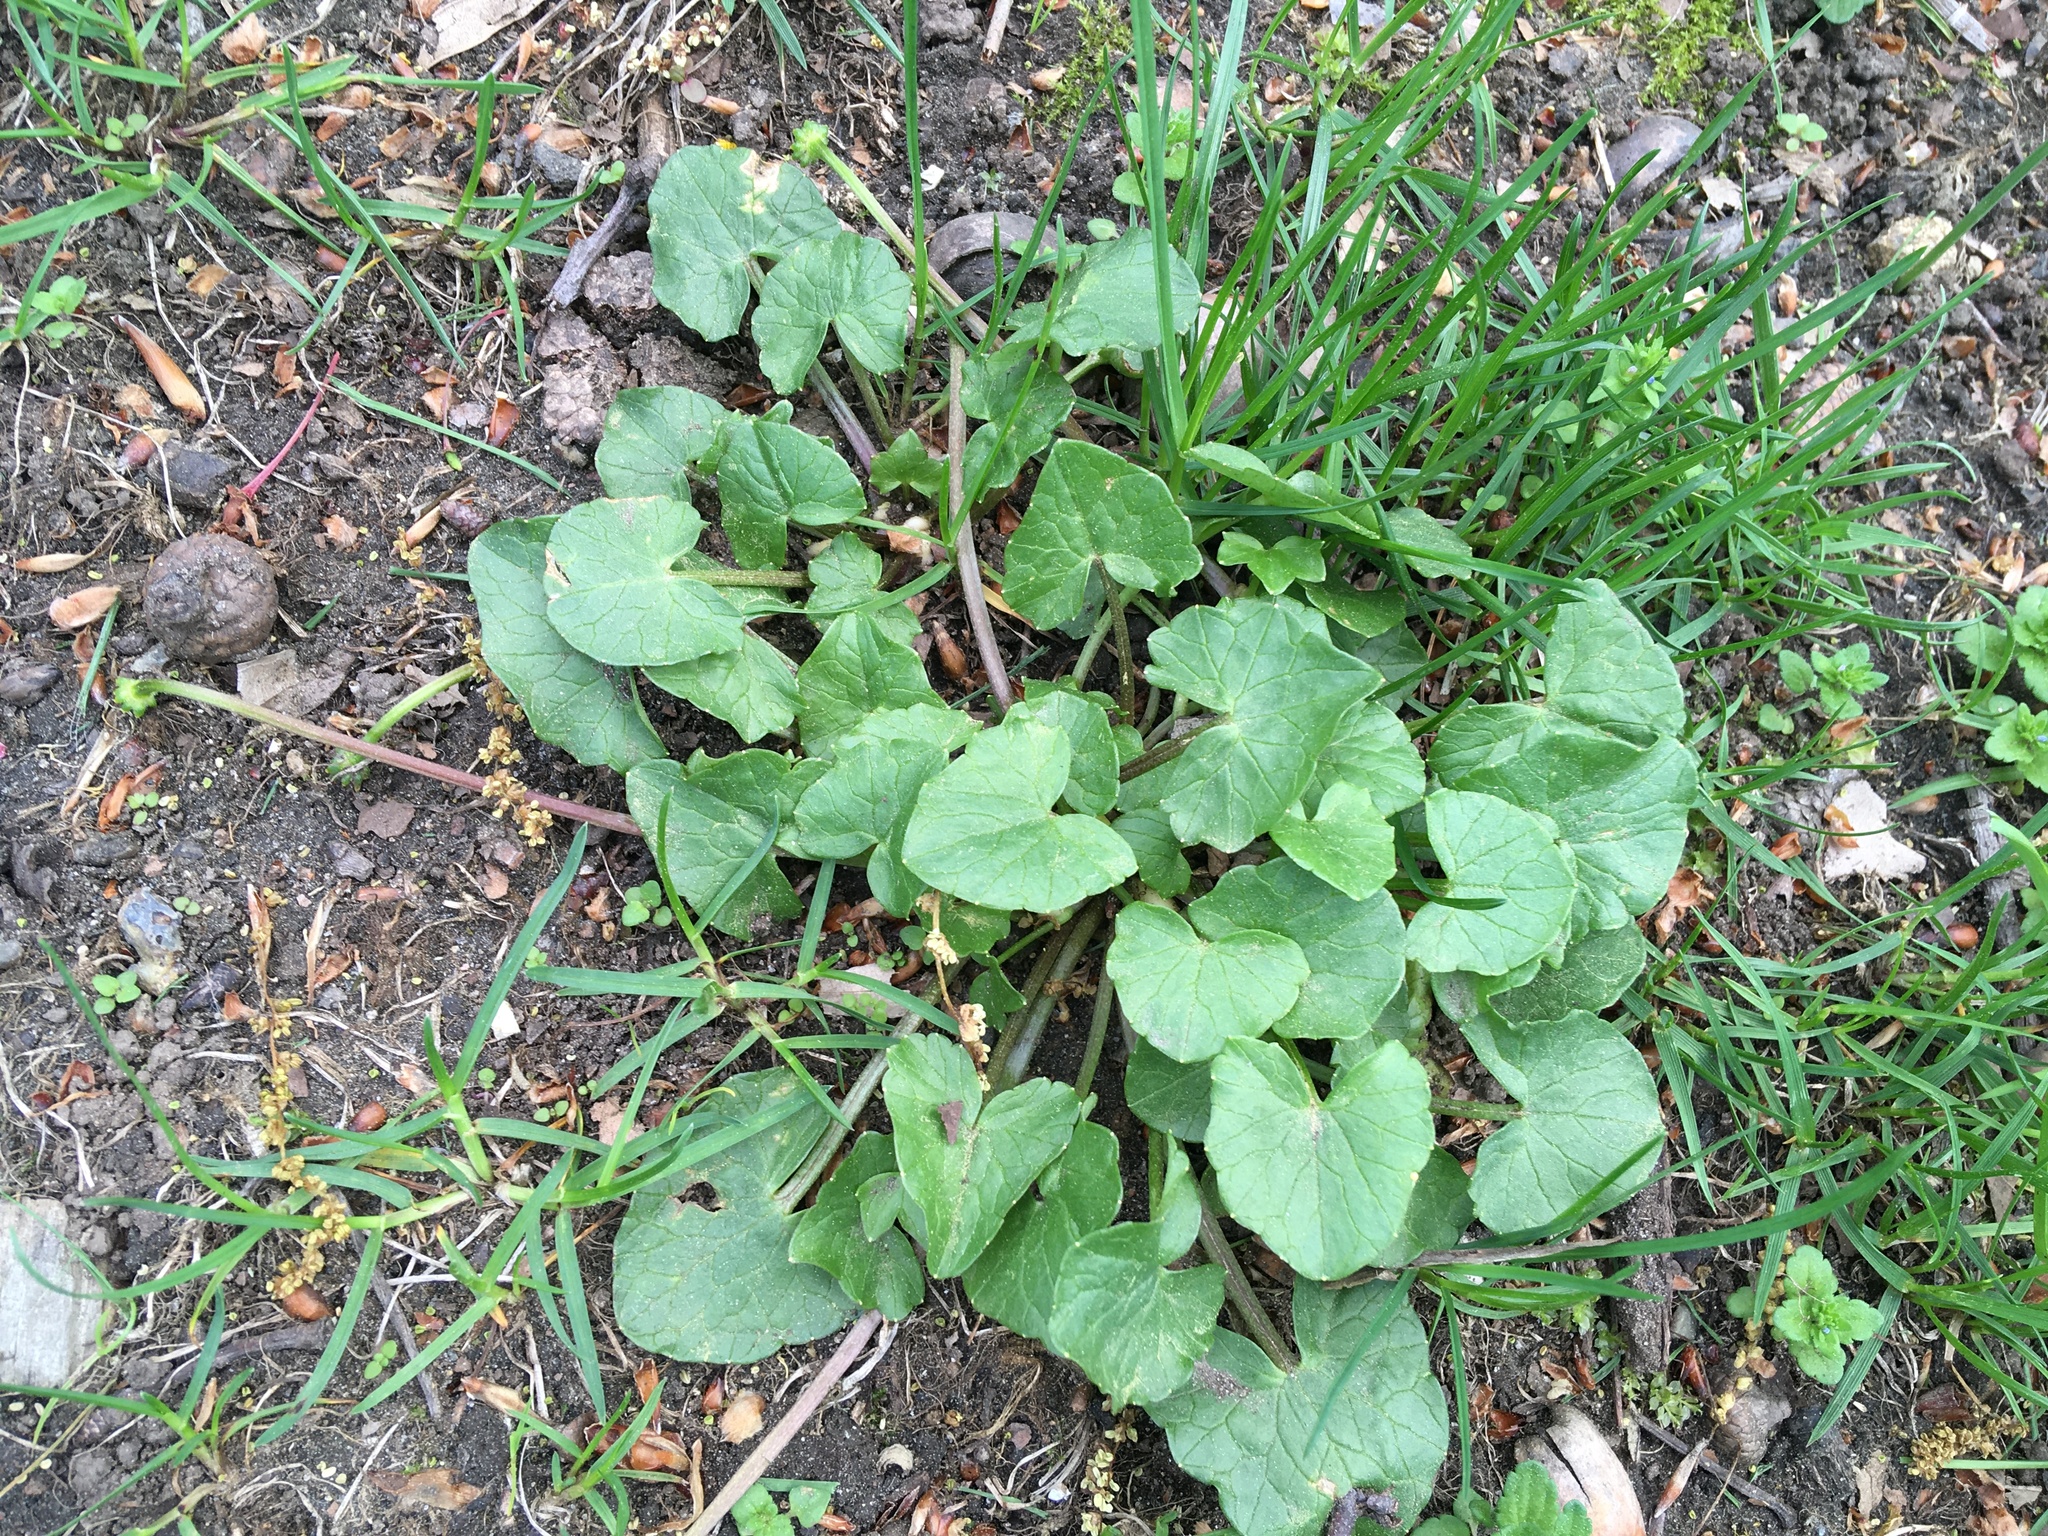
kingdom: Plantae
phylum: Tracheophyta
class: Magnoliopsida
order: Ranunculales
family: Ranunculaceae
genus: Ficaria
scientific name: Ficaria verna
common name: Lesser celandine
